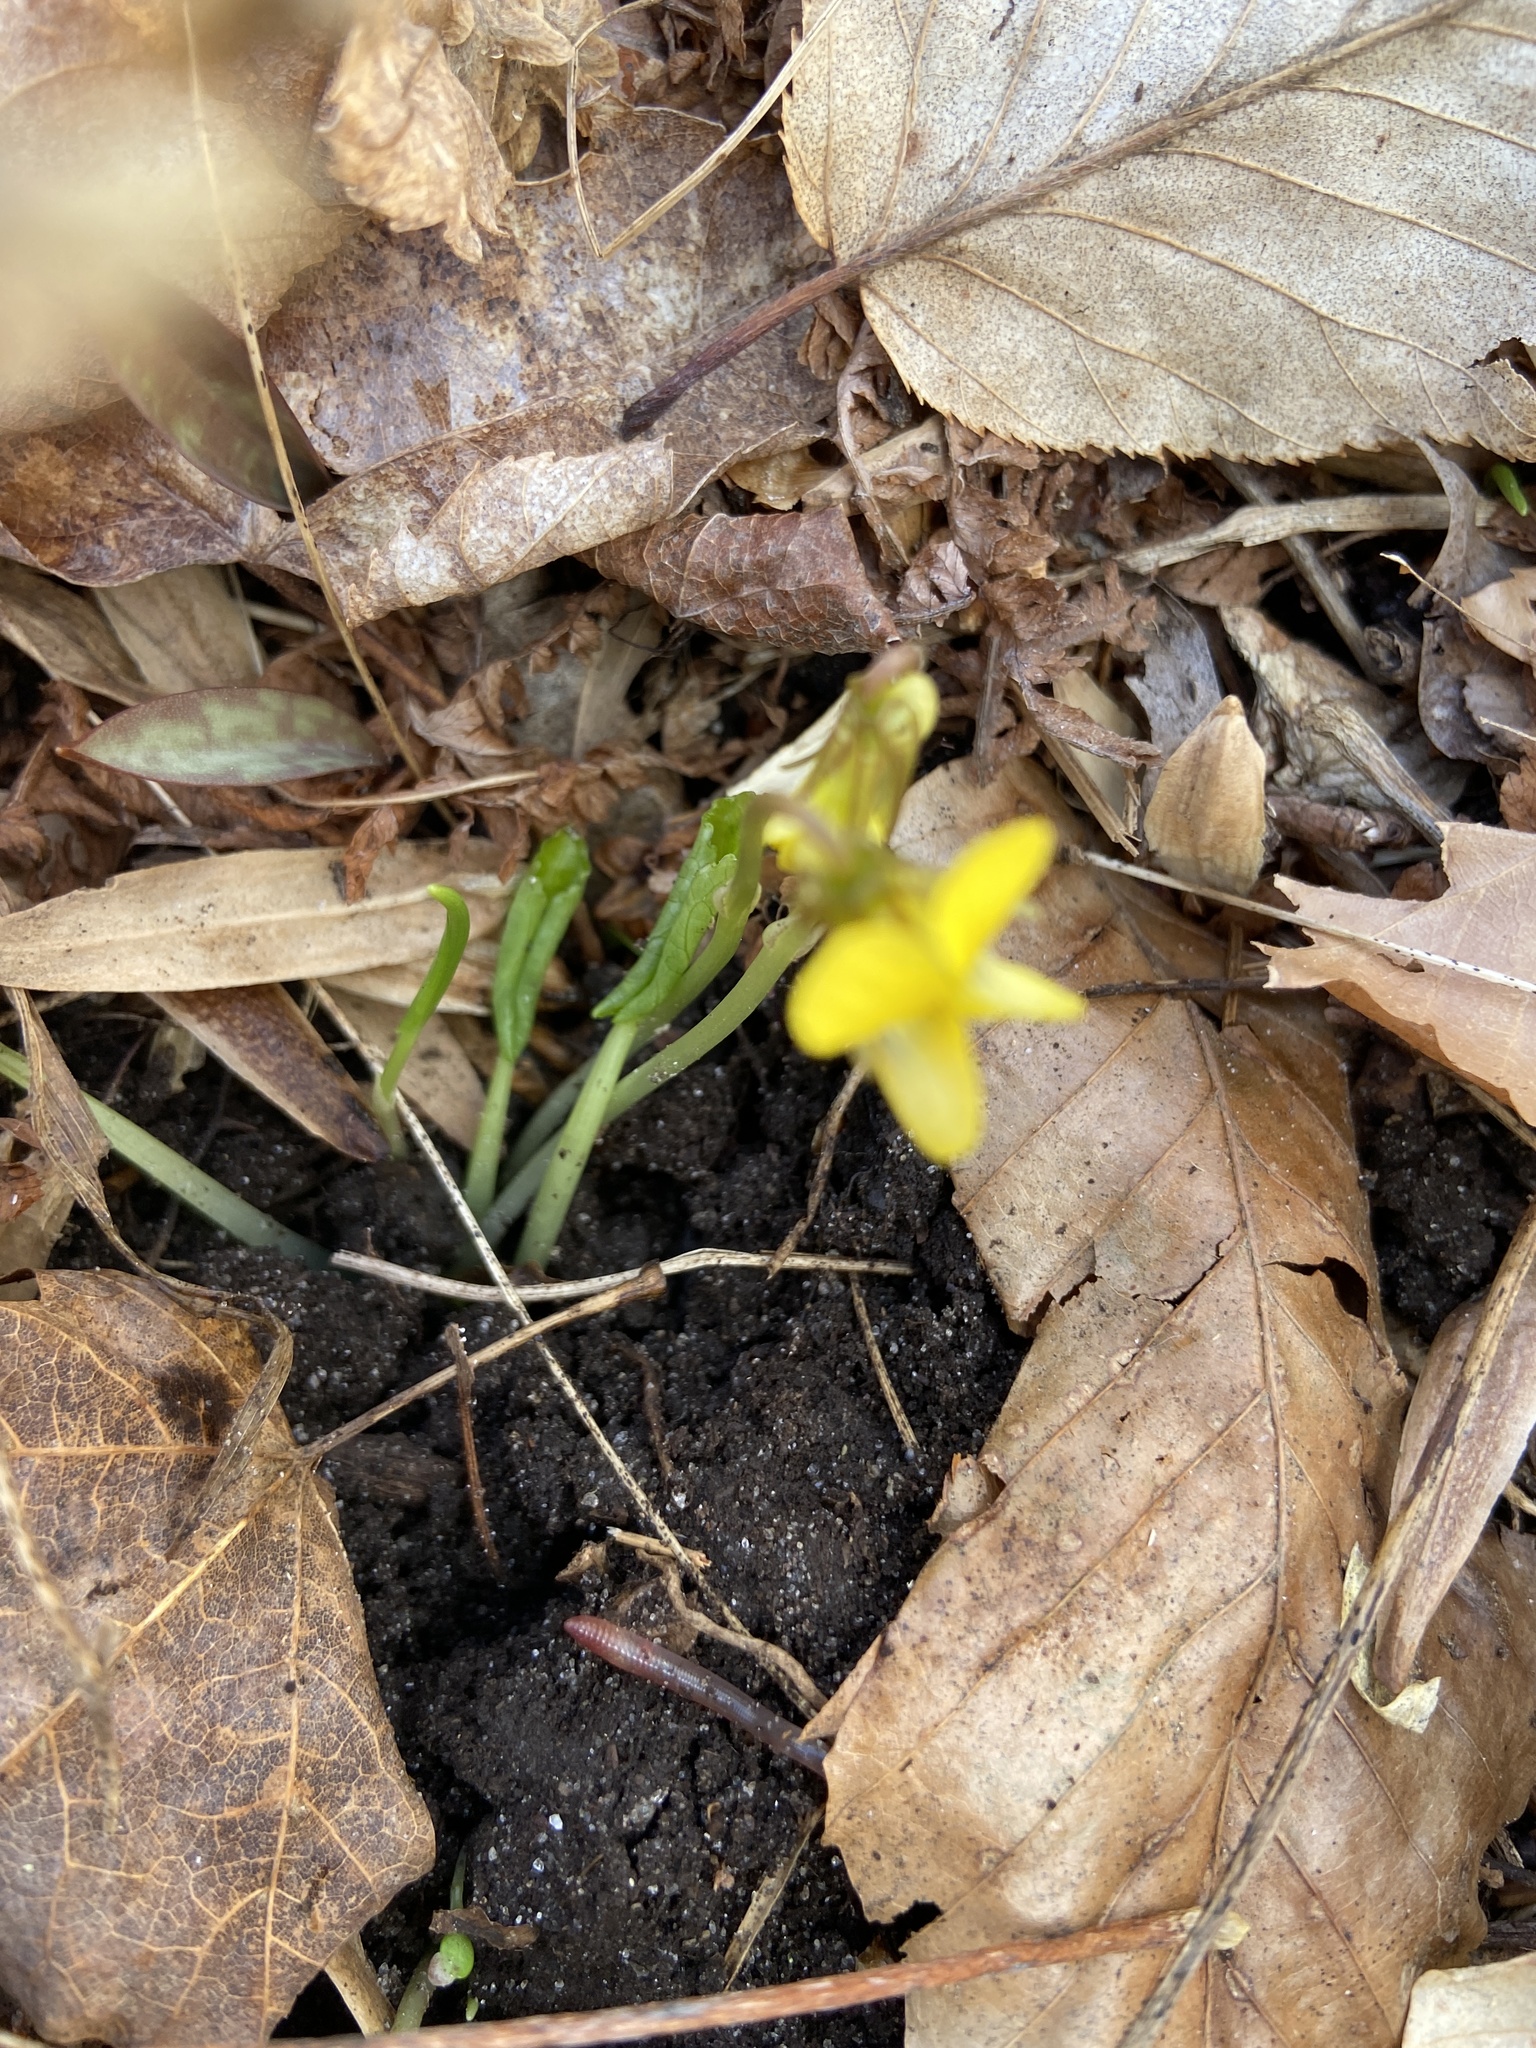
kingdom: Plantae
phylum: Tracheophyta
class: Magnoliopsida
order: Malpighiales
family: Violaceae
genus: Viola
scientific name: Viola rotundifolia
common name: Early yellow violet
